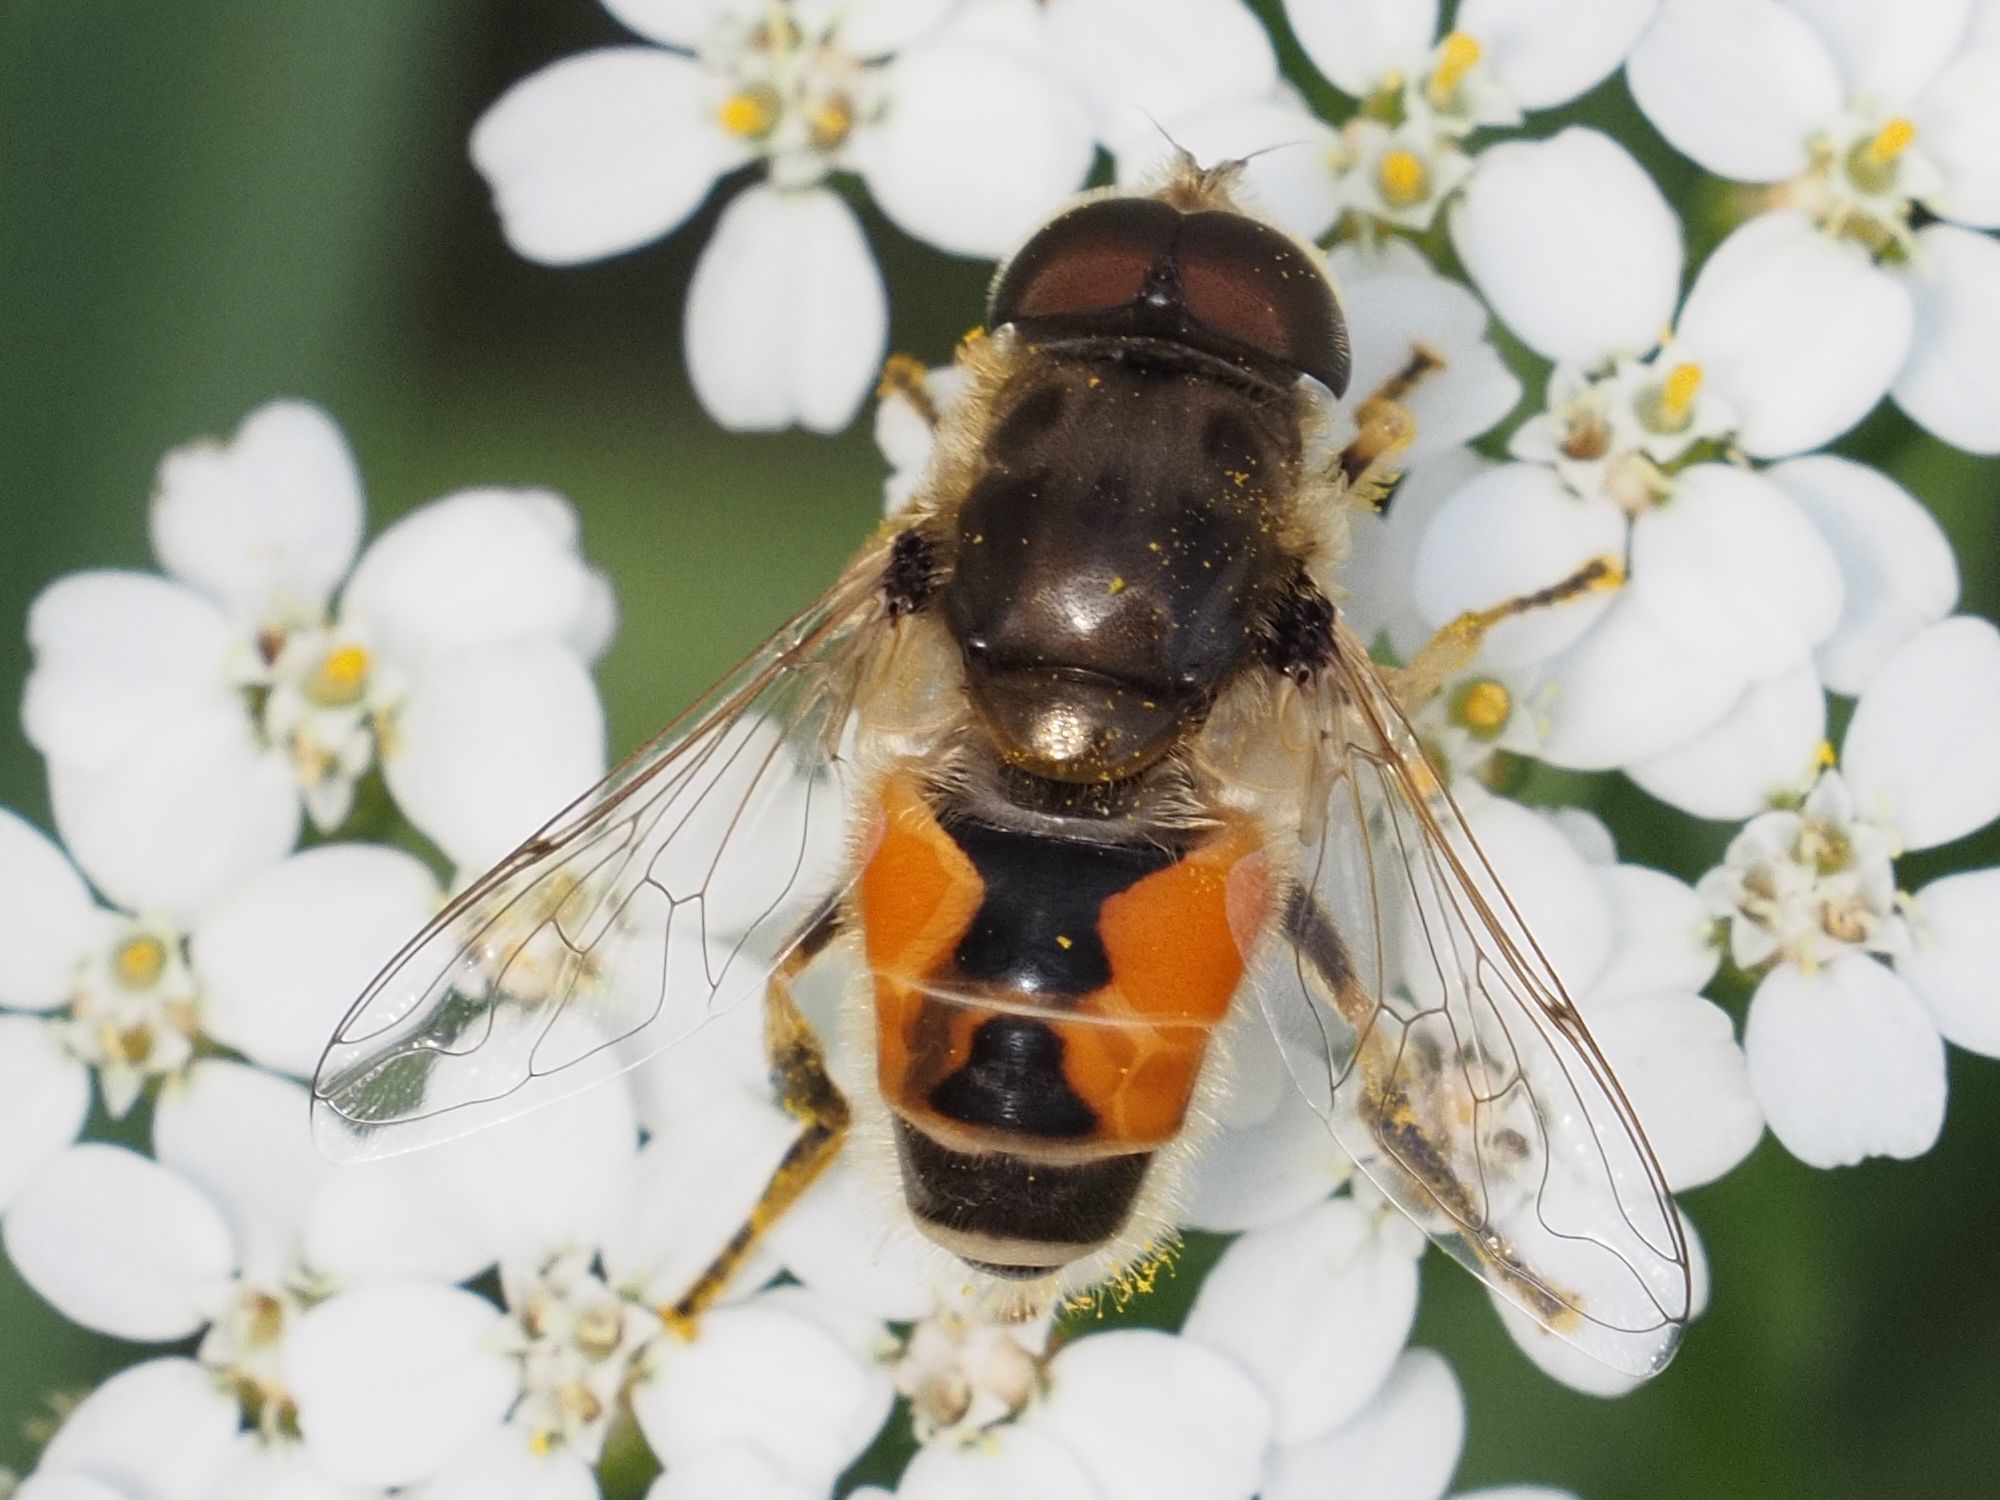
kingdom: Animalia
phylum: Arthropoda
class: Insecta
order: Diptera
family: Syrphidae
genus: Eristalis
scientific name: Eristalis arbustorum
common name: Hover fly
